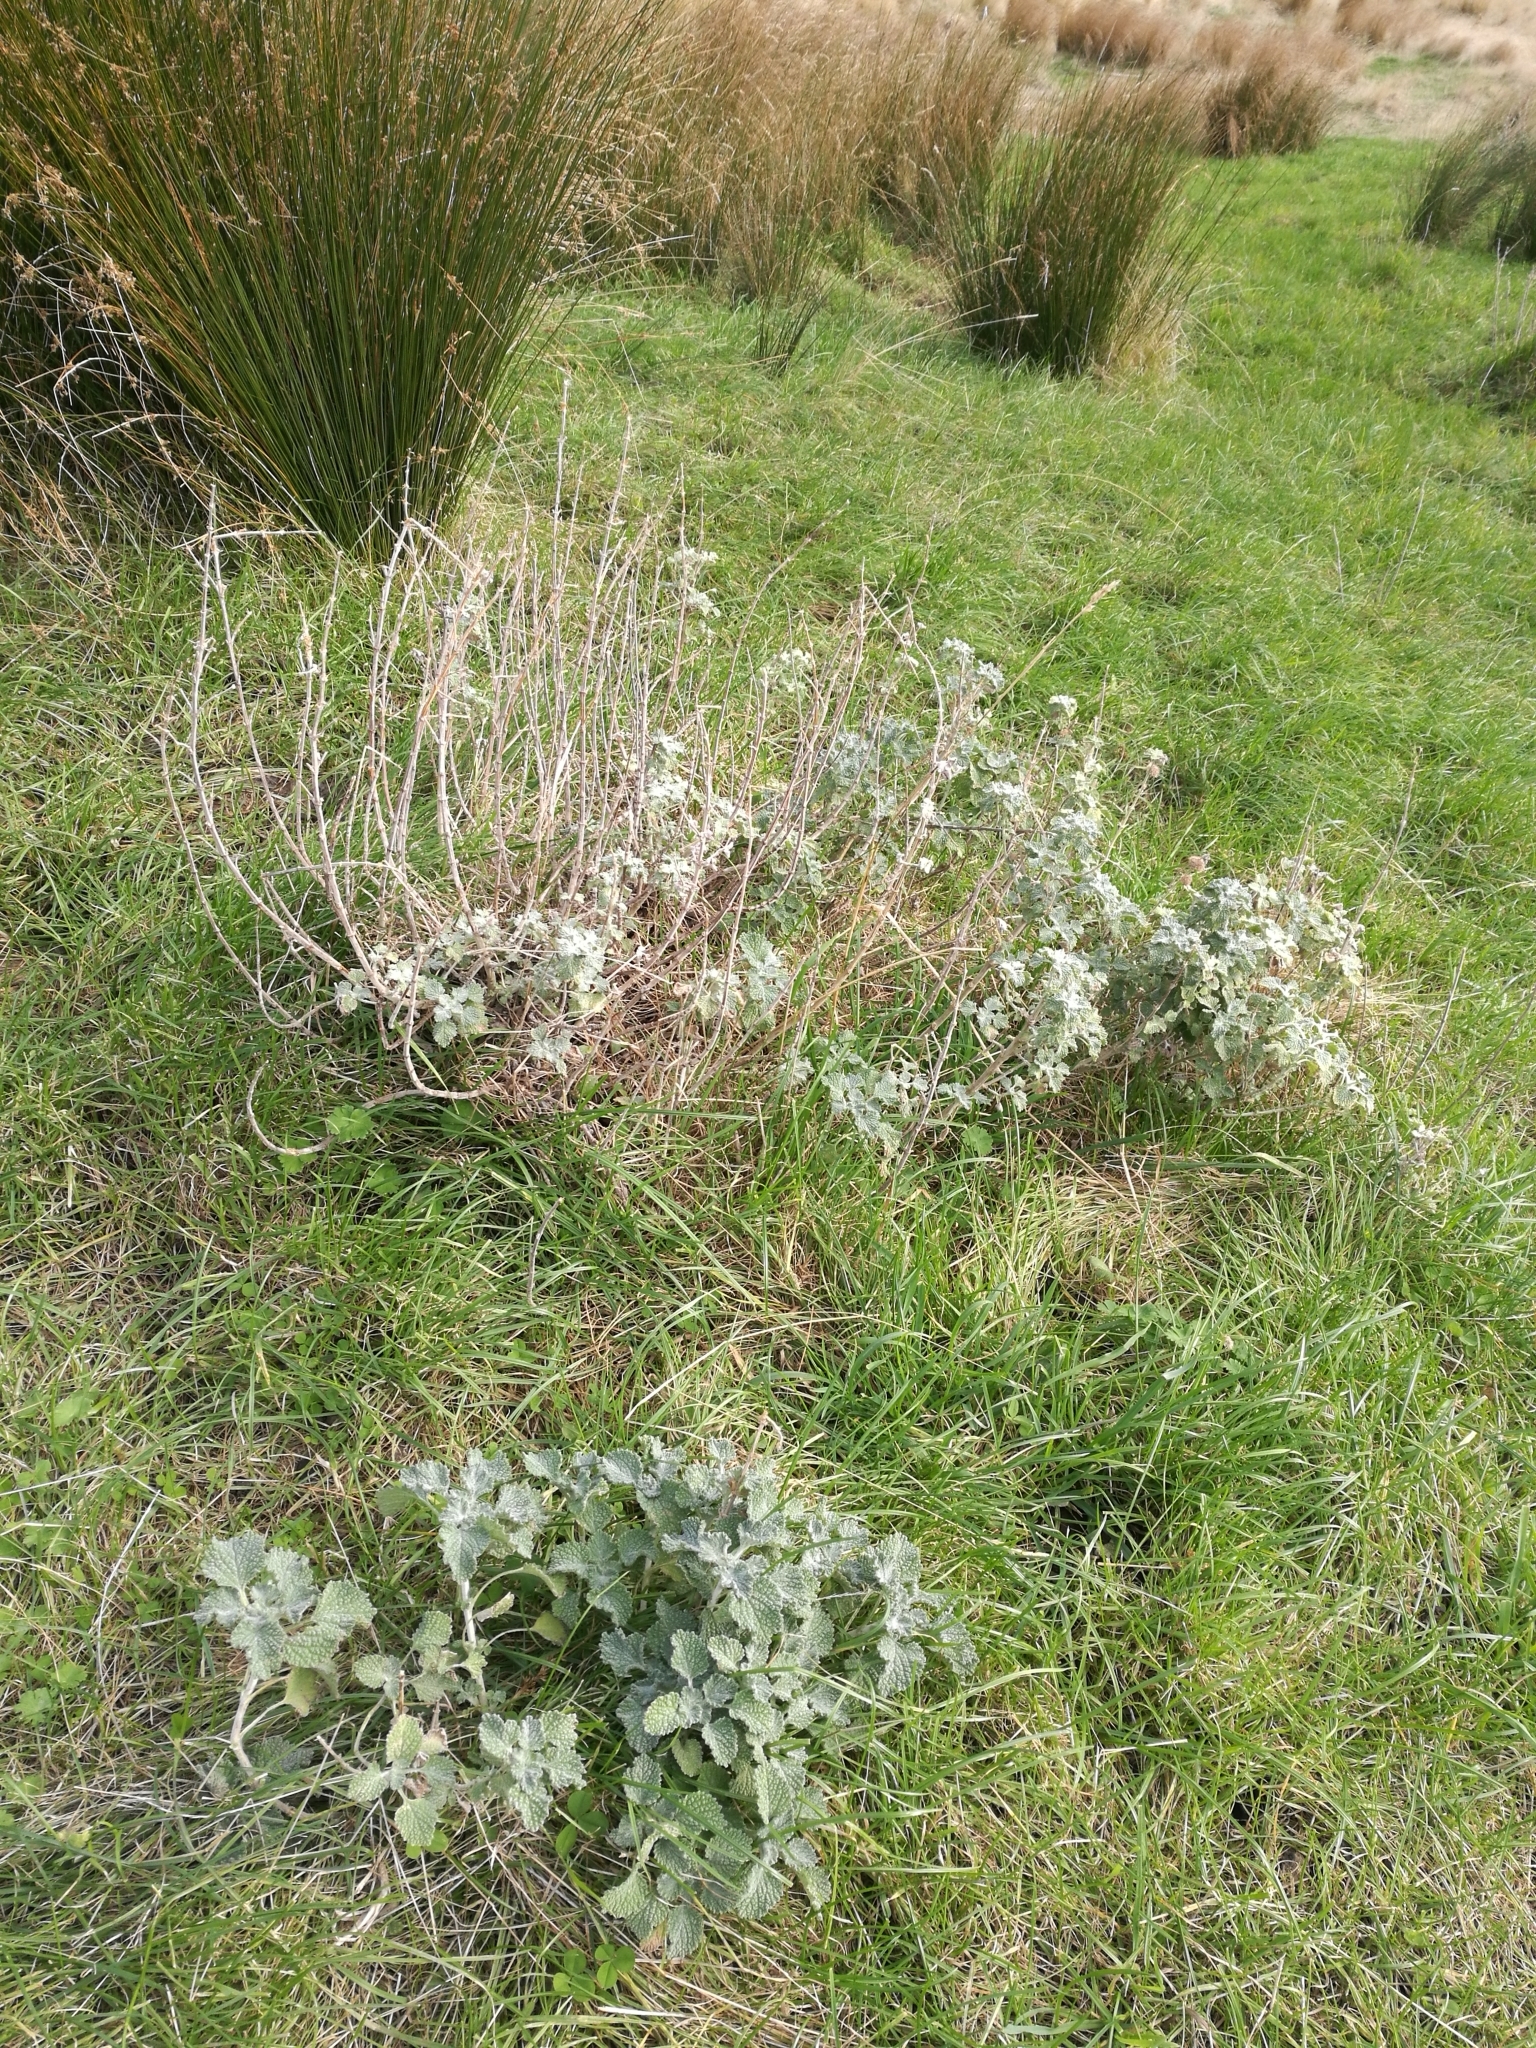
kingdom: Plantae
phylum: Tracheophyta
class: Magnoliopsida
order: Lamiales
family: Lamiaceae
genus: Marrubium
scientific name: Marrubium vulgare
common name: Horehound
